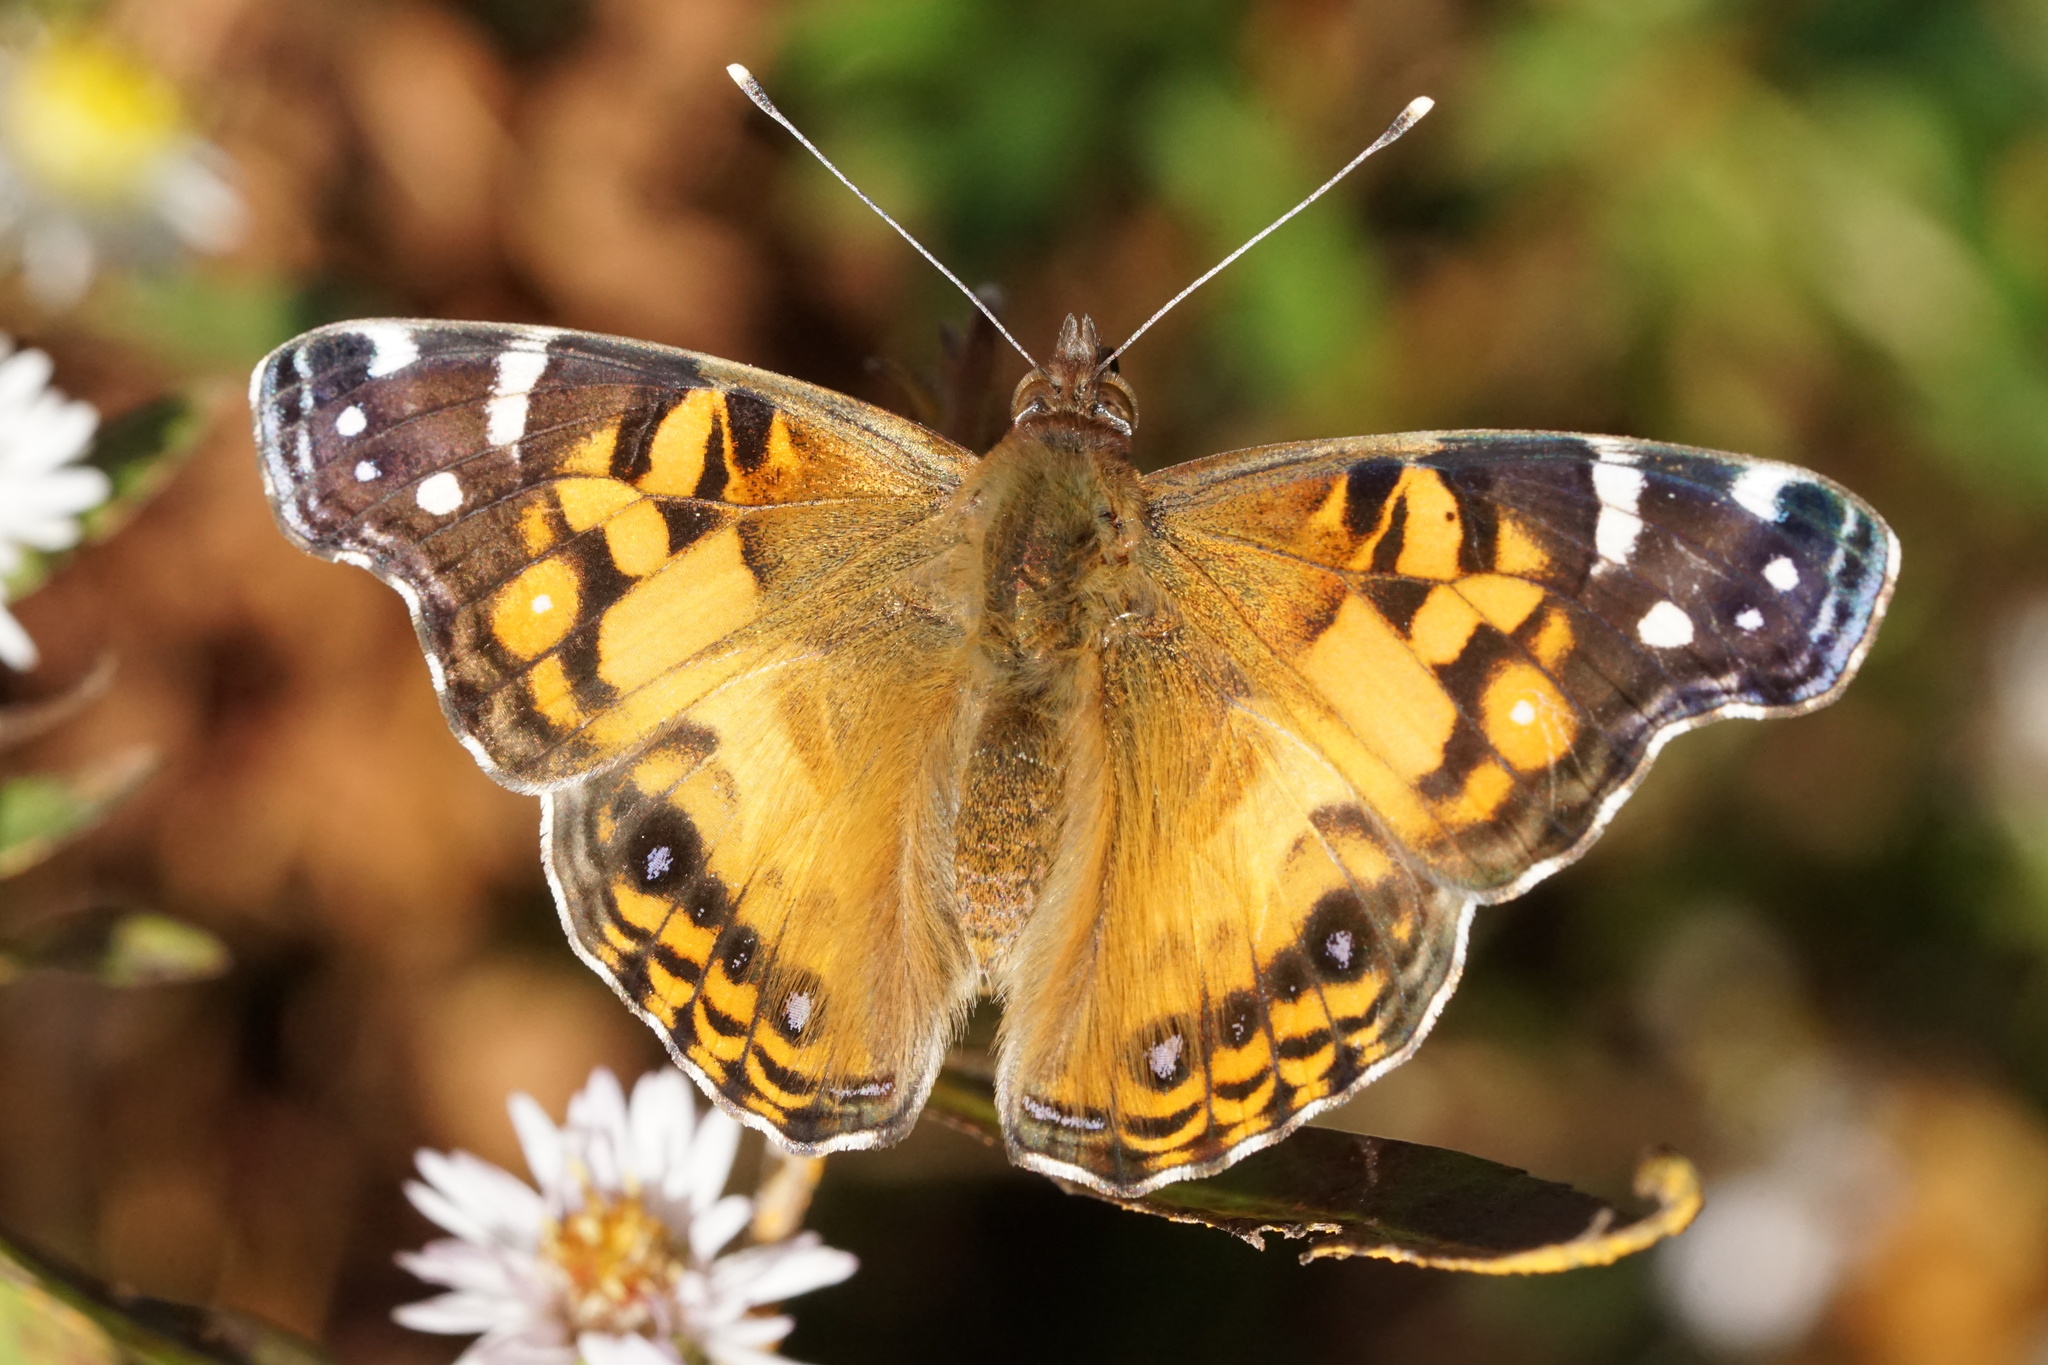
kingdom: Animalia
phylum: Arthropoda
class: Insecta
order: Lepidoptera
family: Nymphalidae
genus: Vanessa
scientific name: Vanessa virginiensis
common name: American lady
